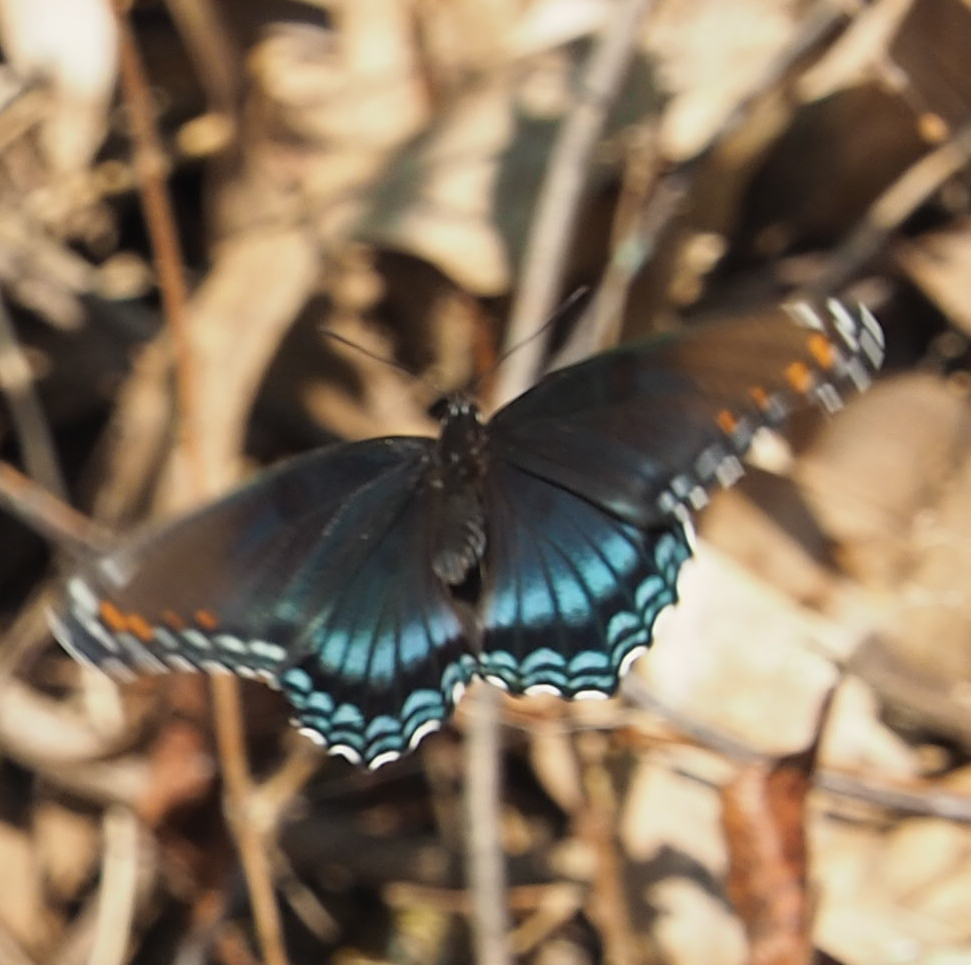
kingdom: Animalia
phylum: Arthropoda
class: Insecta
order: Lepidoptera
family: Nymphalidae
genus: Limenitis
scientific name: Limenitis astyanax
